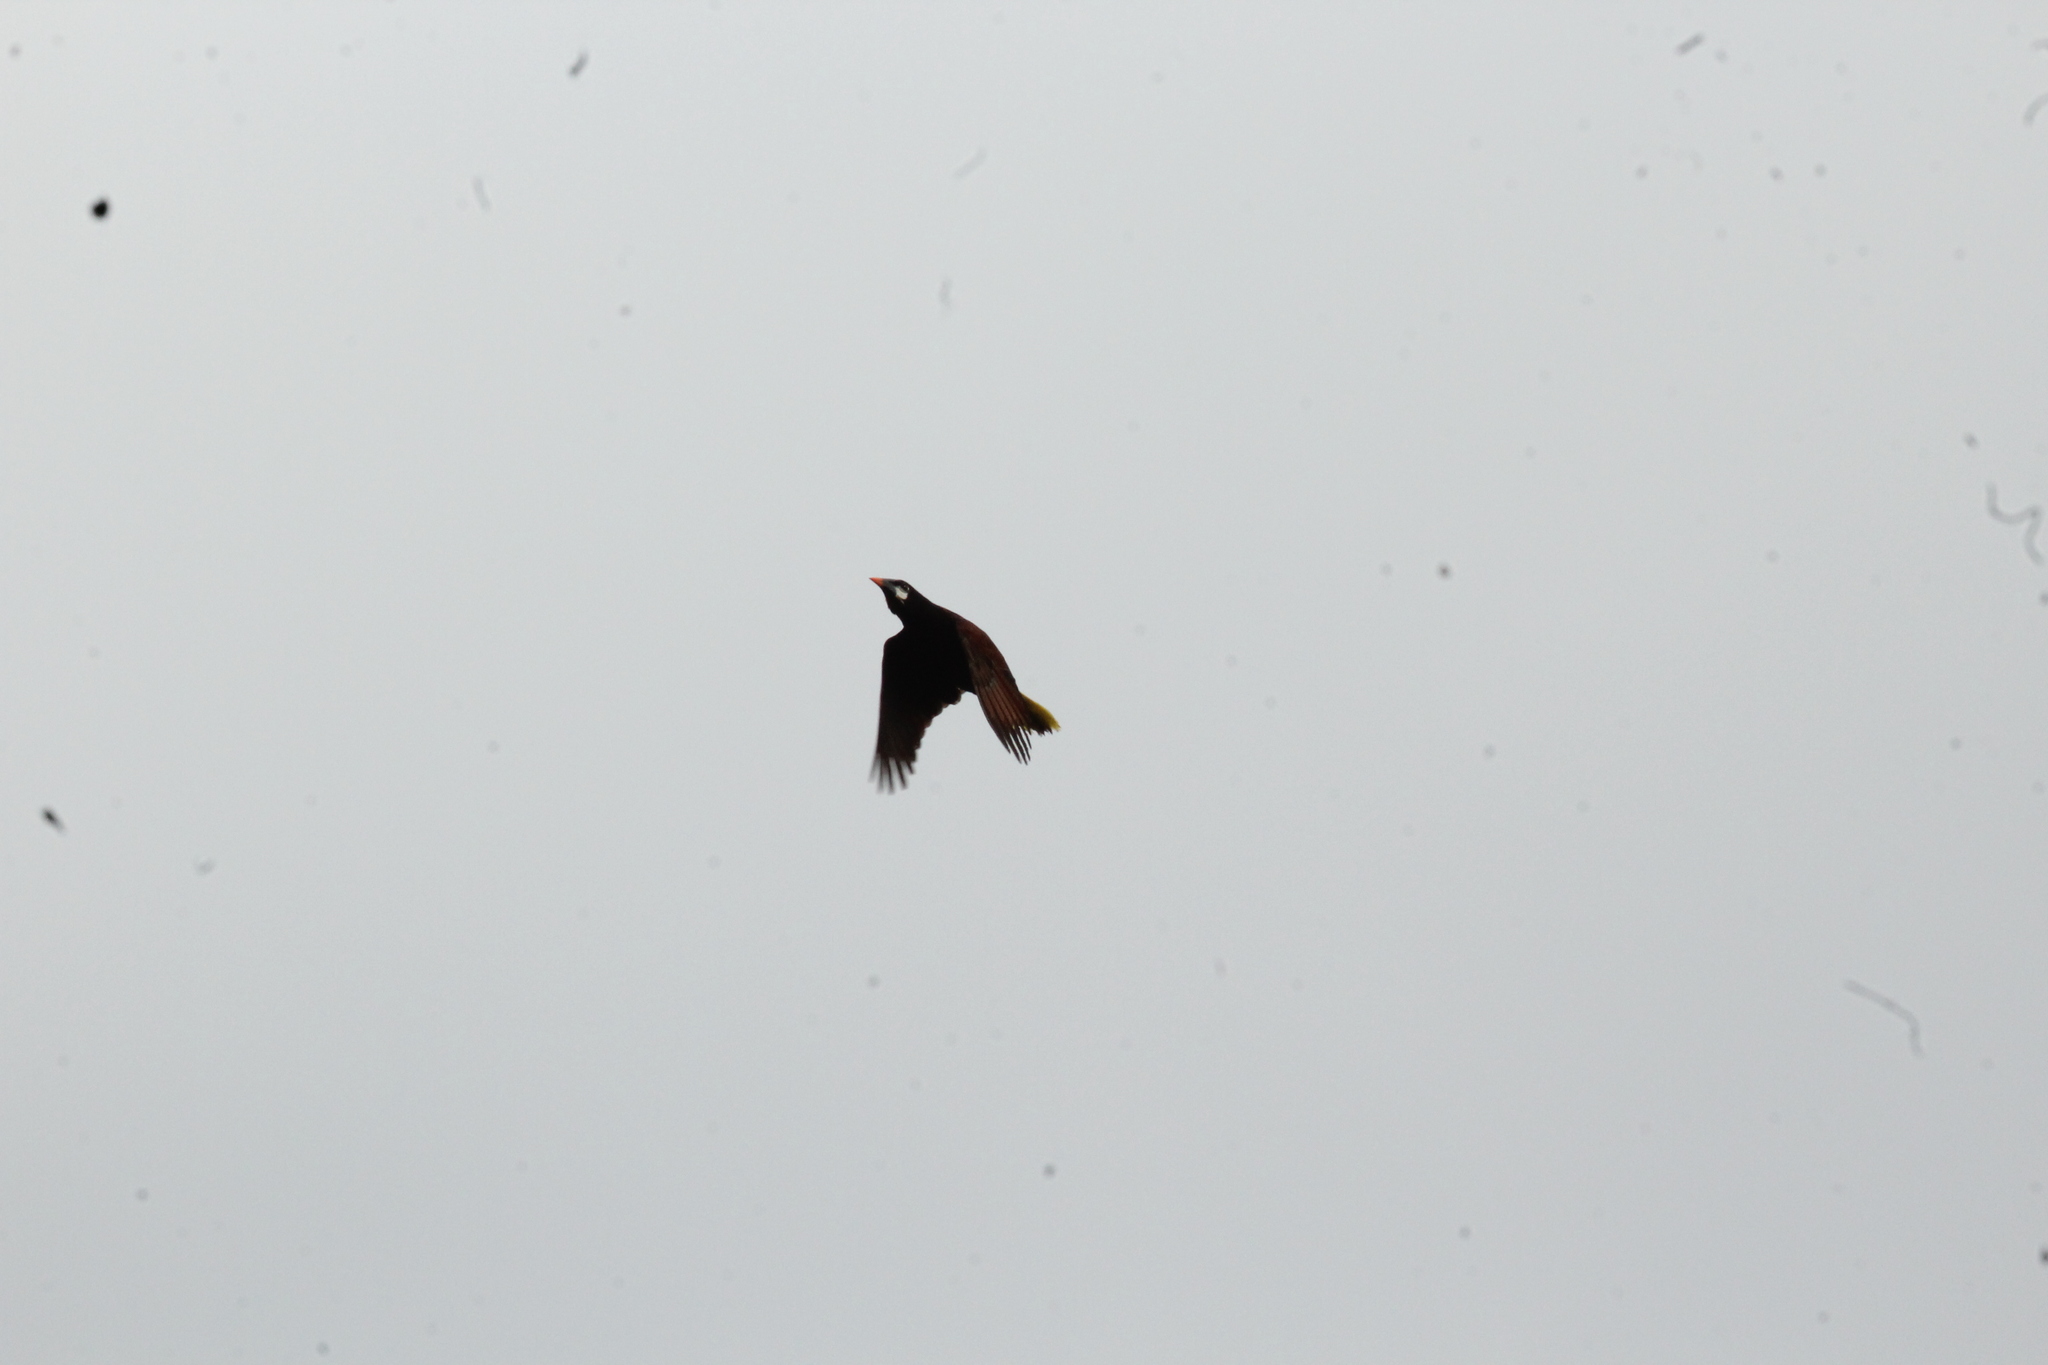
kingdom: Animalia
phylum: Chordata
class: Aves
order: Passeriformes
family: Icteridae
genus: Psarocolius
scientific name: Psarocolius montezuma
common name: Montezuma oropendola
